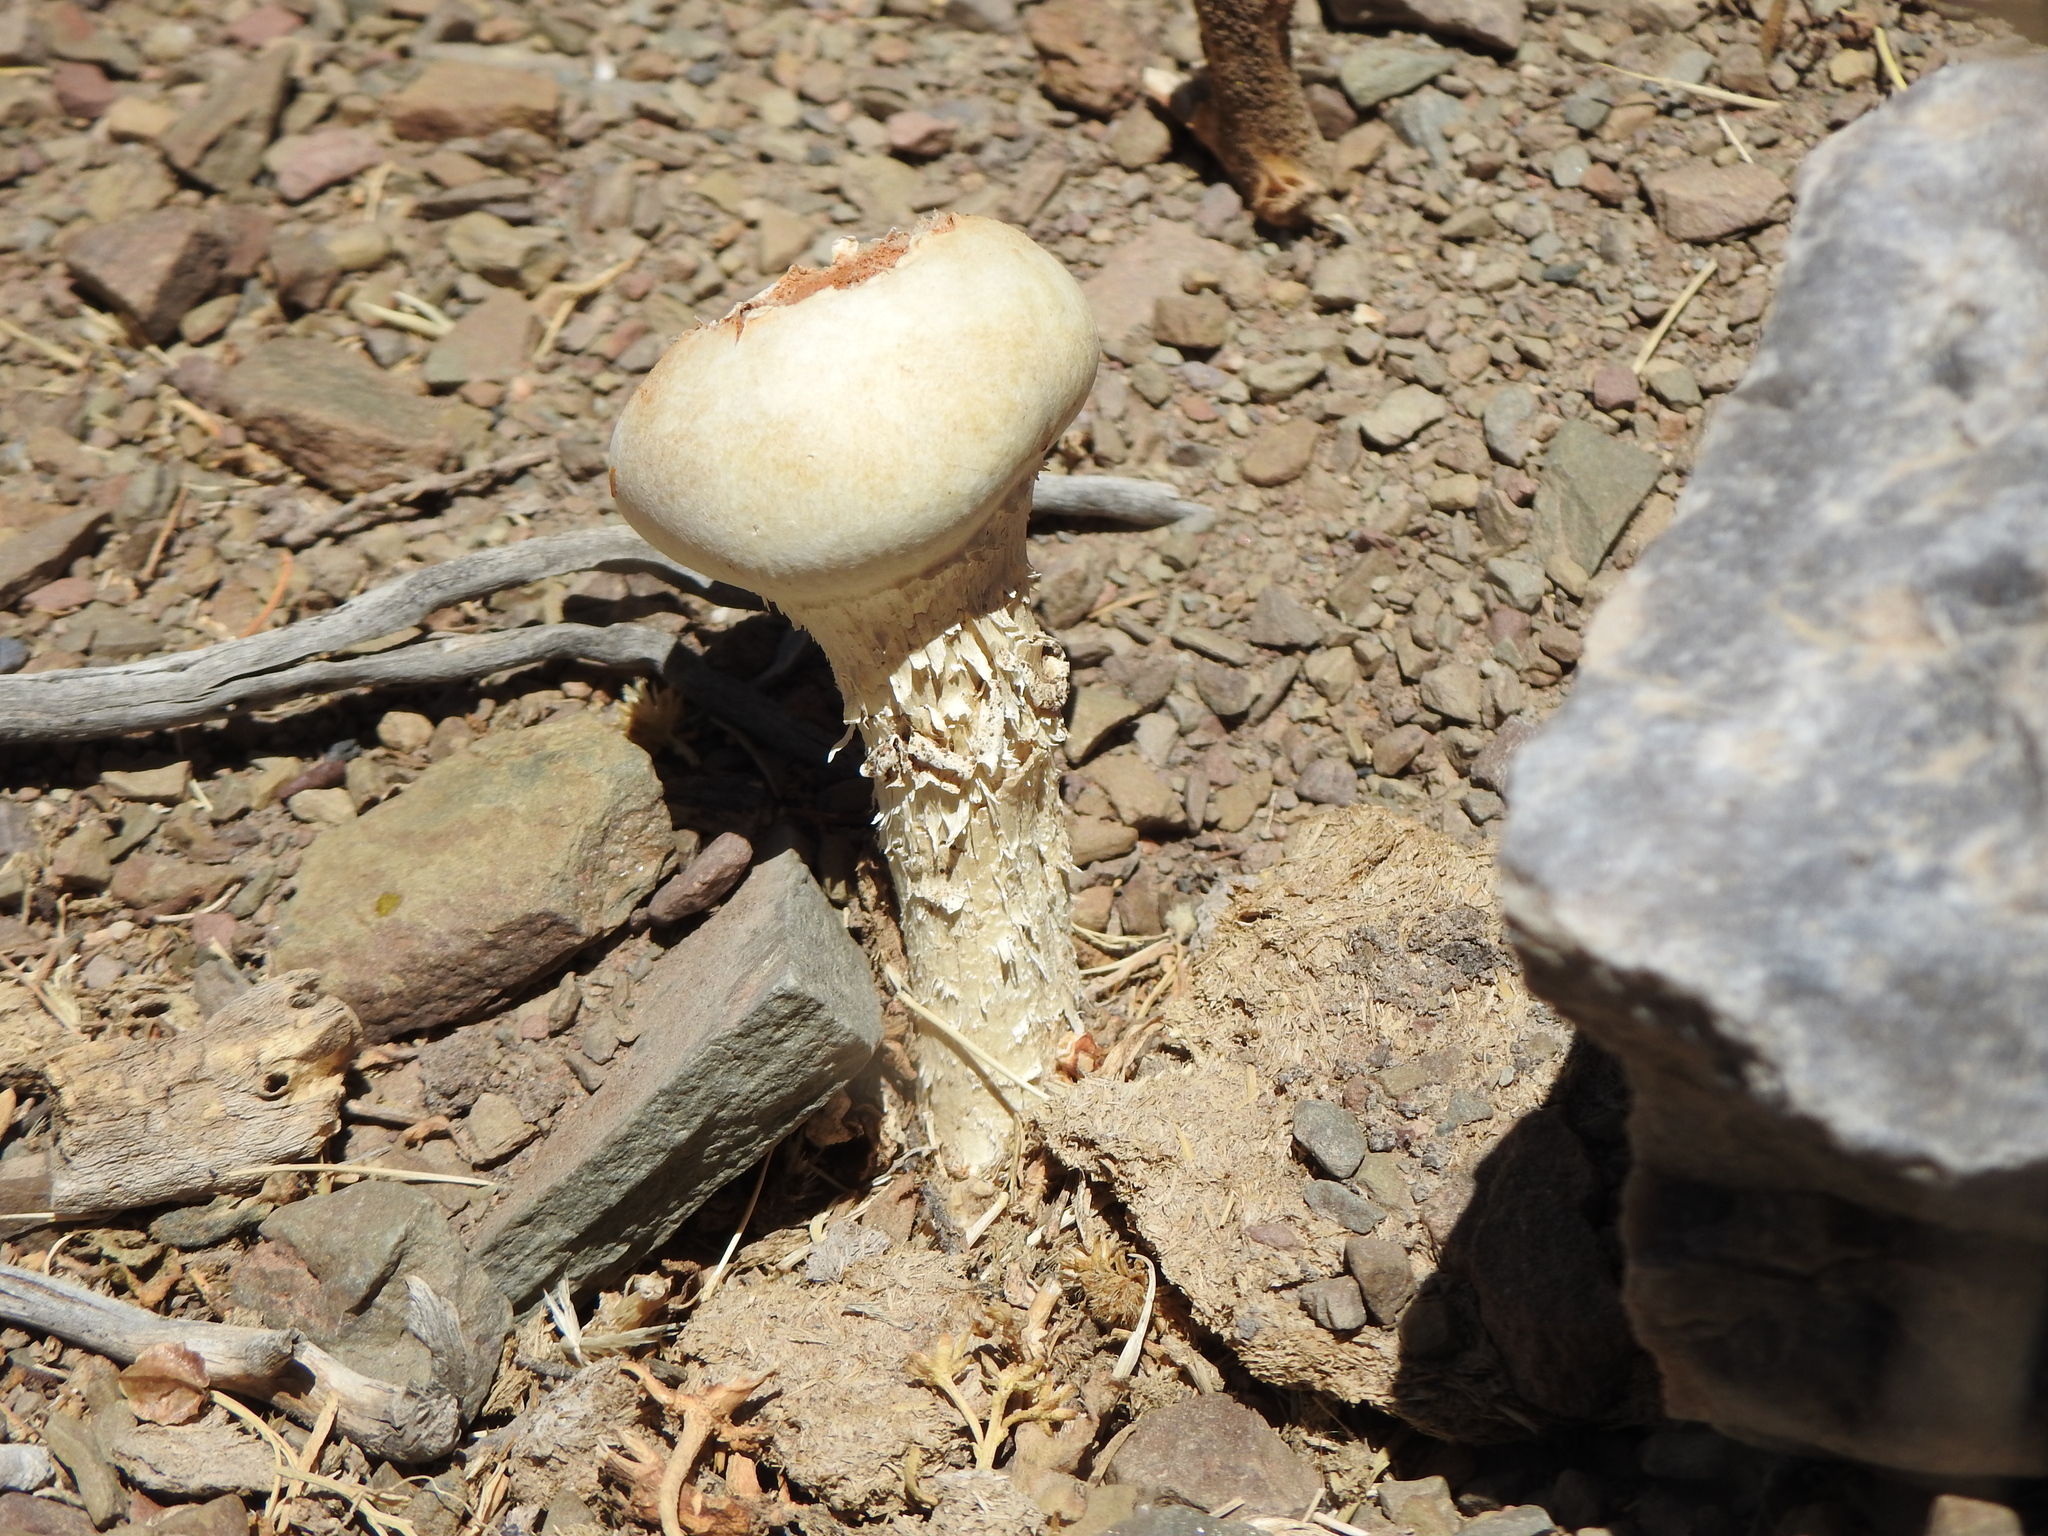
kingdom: Fungi
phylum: Basidiomycota
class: Agaricomycetes
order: Agaricales
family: Agaricaceae
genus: Chlamydopus
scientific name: Chlamydopus meyenianus
